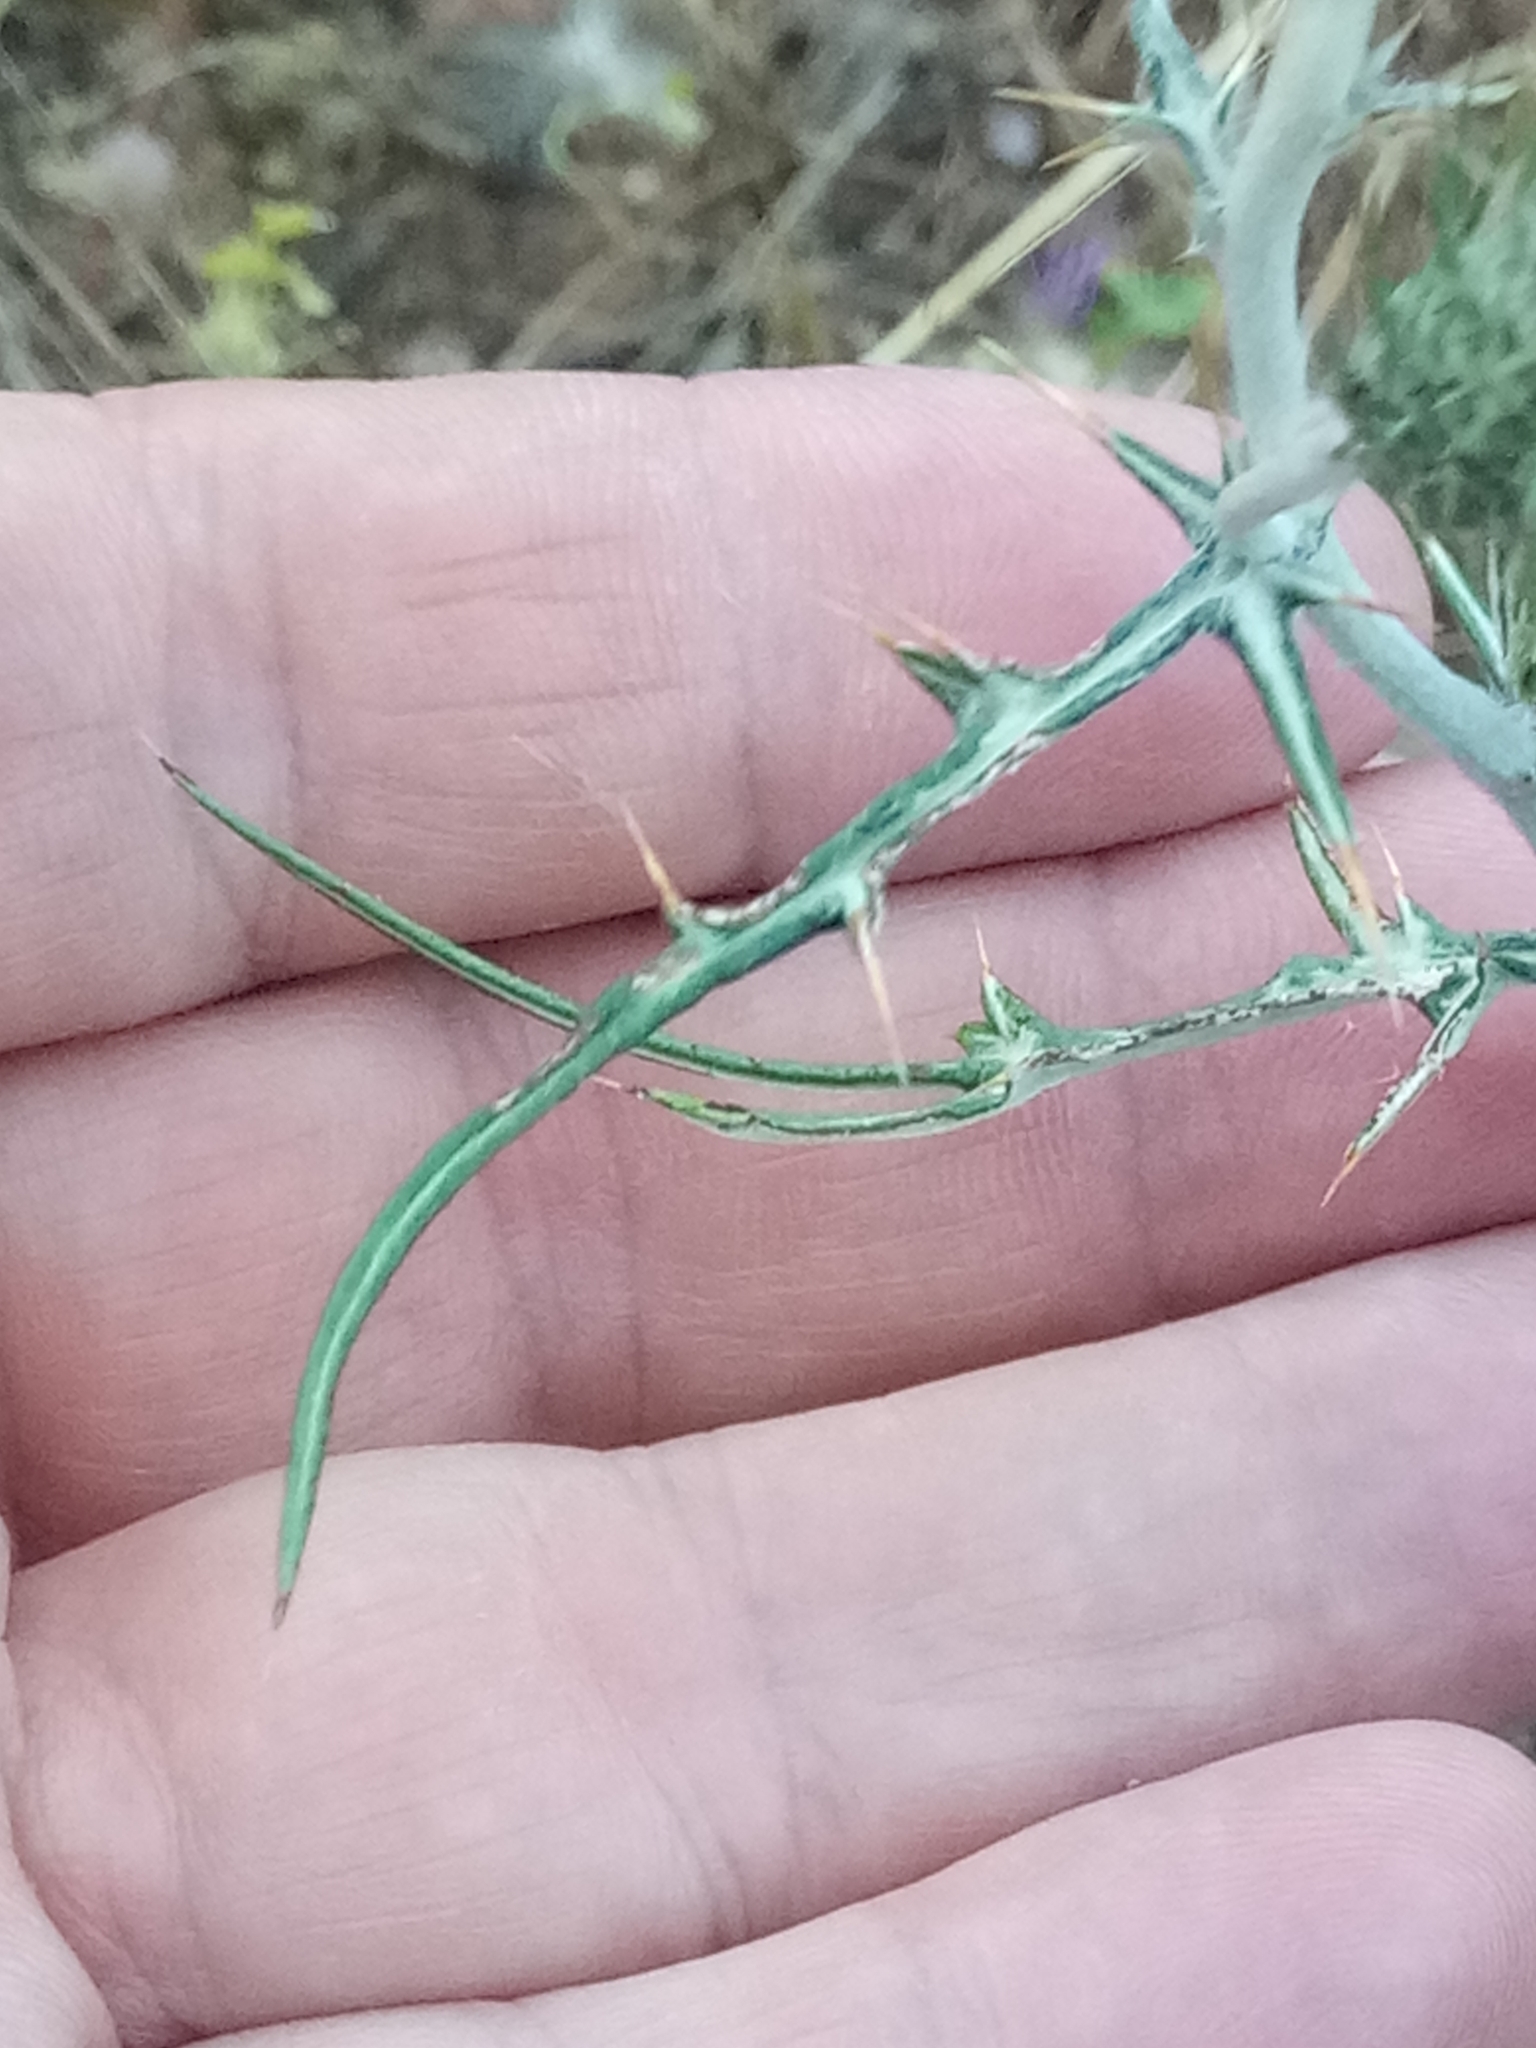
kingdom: Plantae
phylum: Tracheophyta
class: Magnoliopsida
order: Asterales
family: Asteraceae
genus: Galactites
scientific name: Galactites tomentosa
